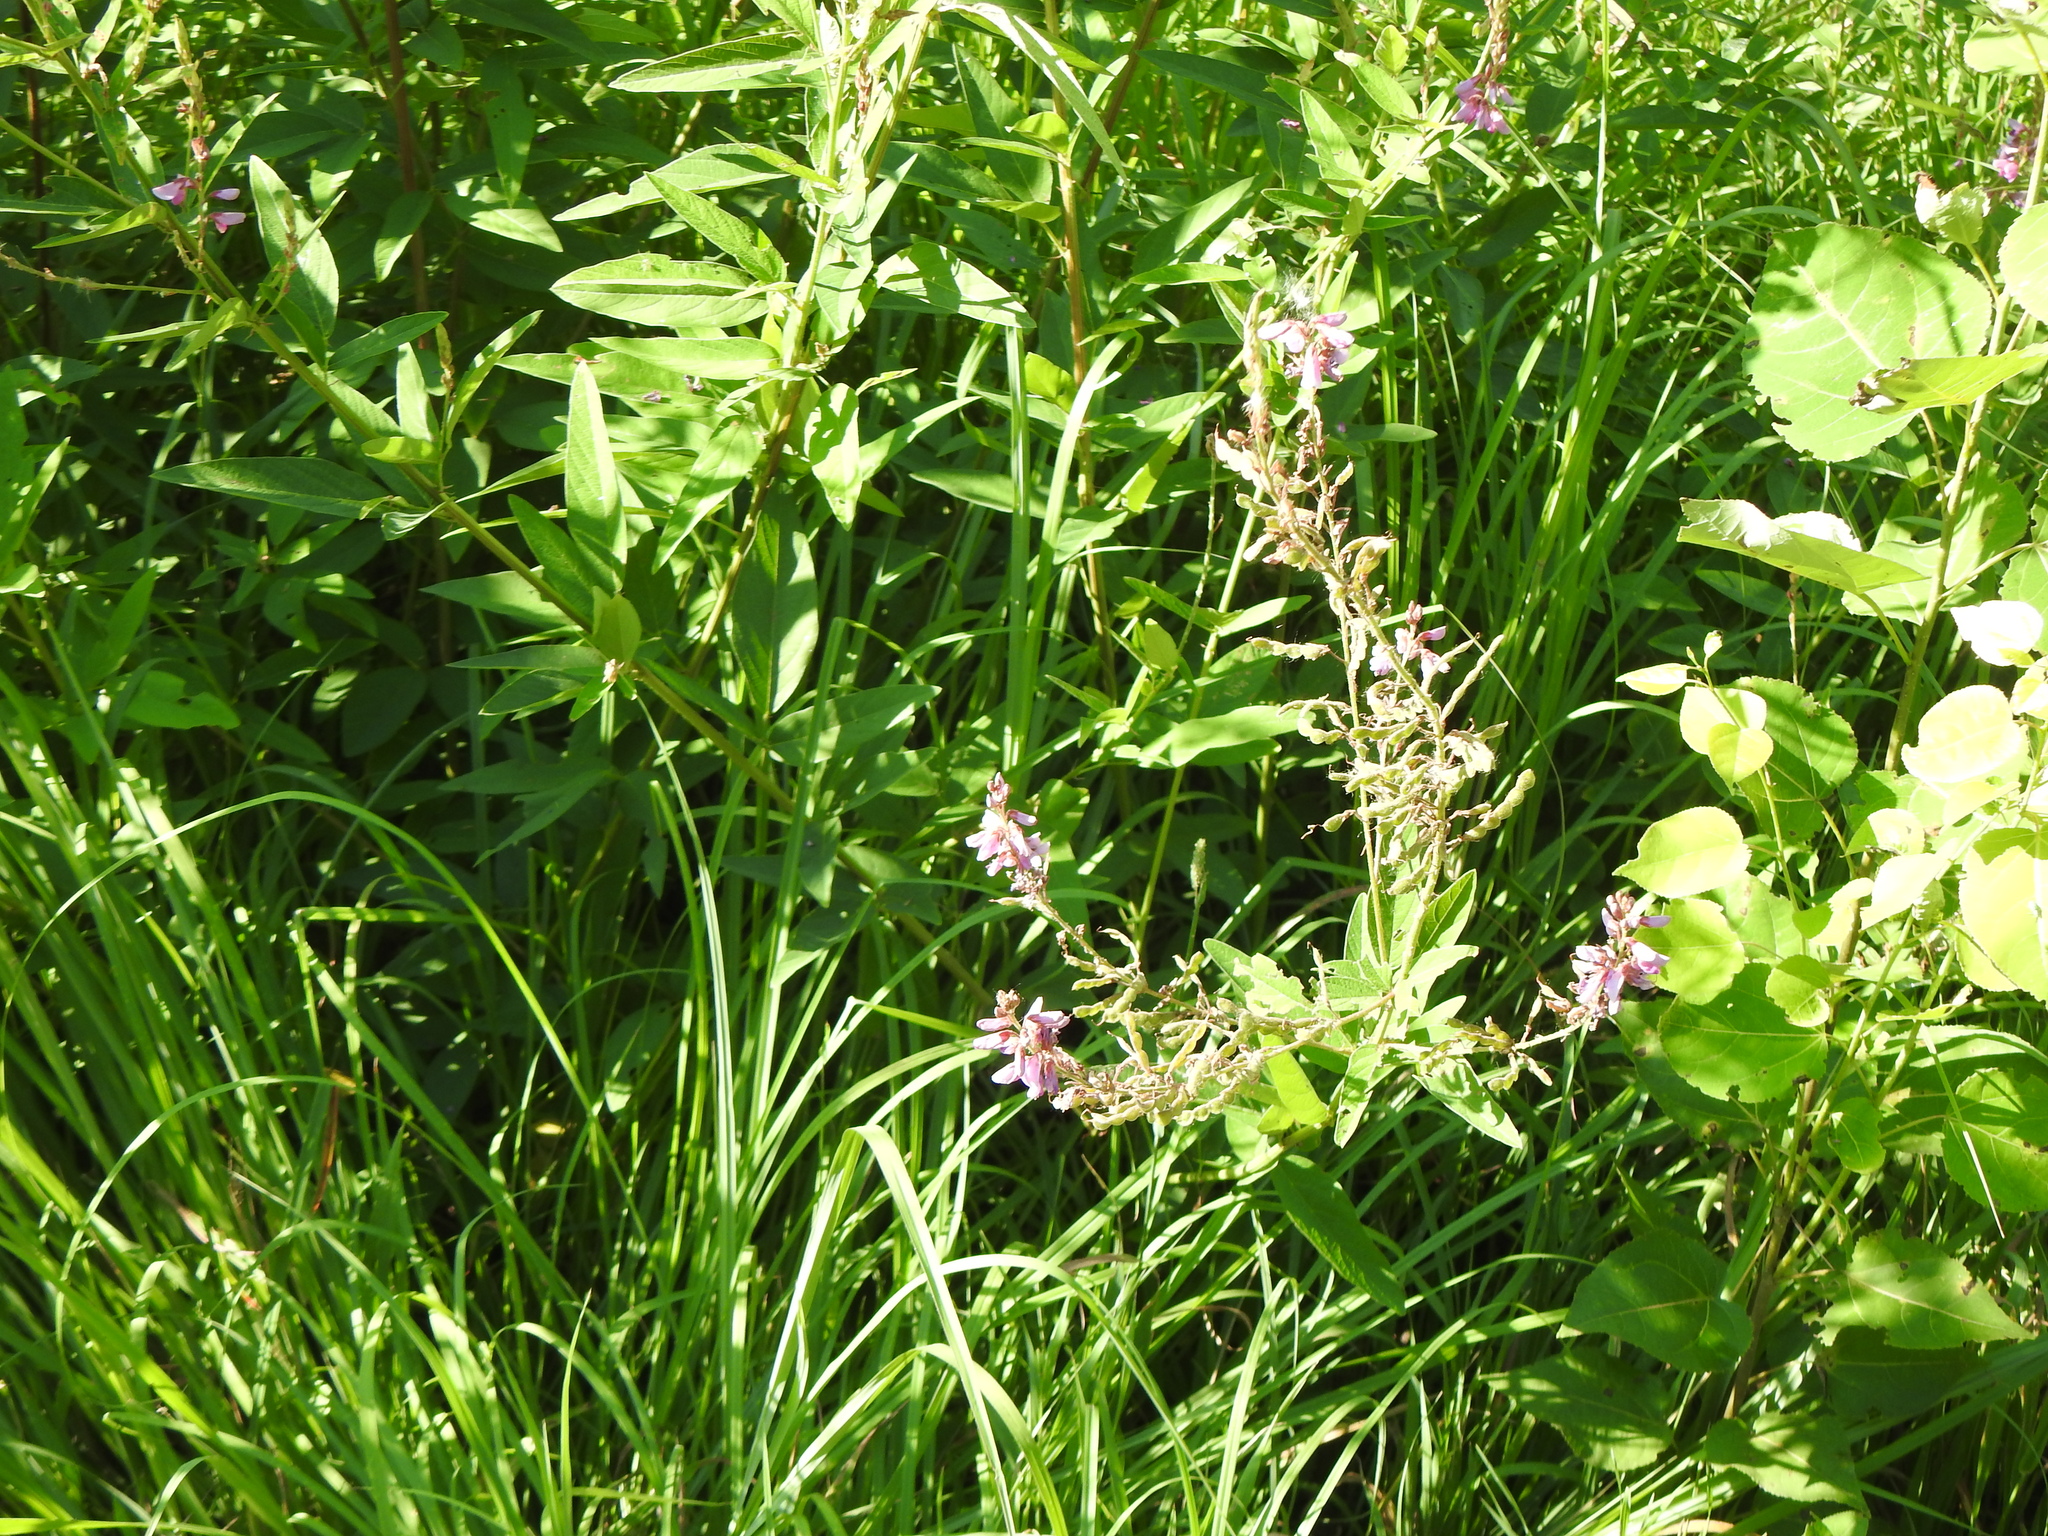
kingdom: Plantae
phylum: Tracheophyta
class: Magnoliopsida
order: Fabales
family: Fabaceae
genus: Desmodium
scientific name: Desmodium canadense
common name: Canada tick-trefoil
